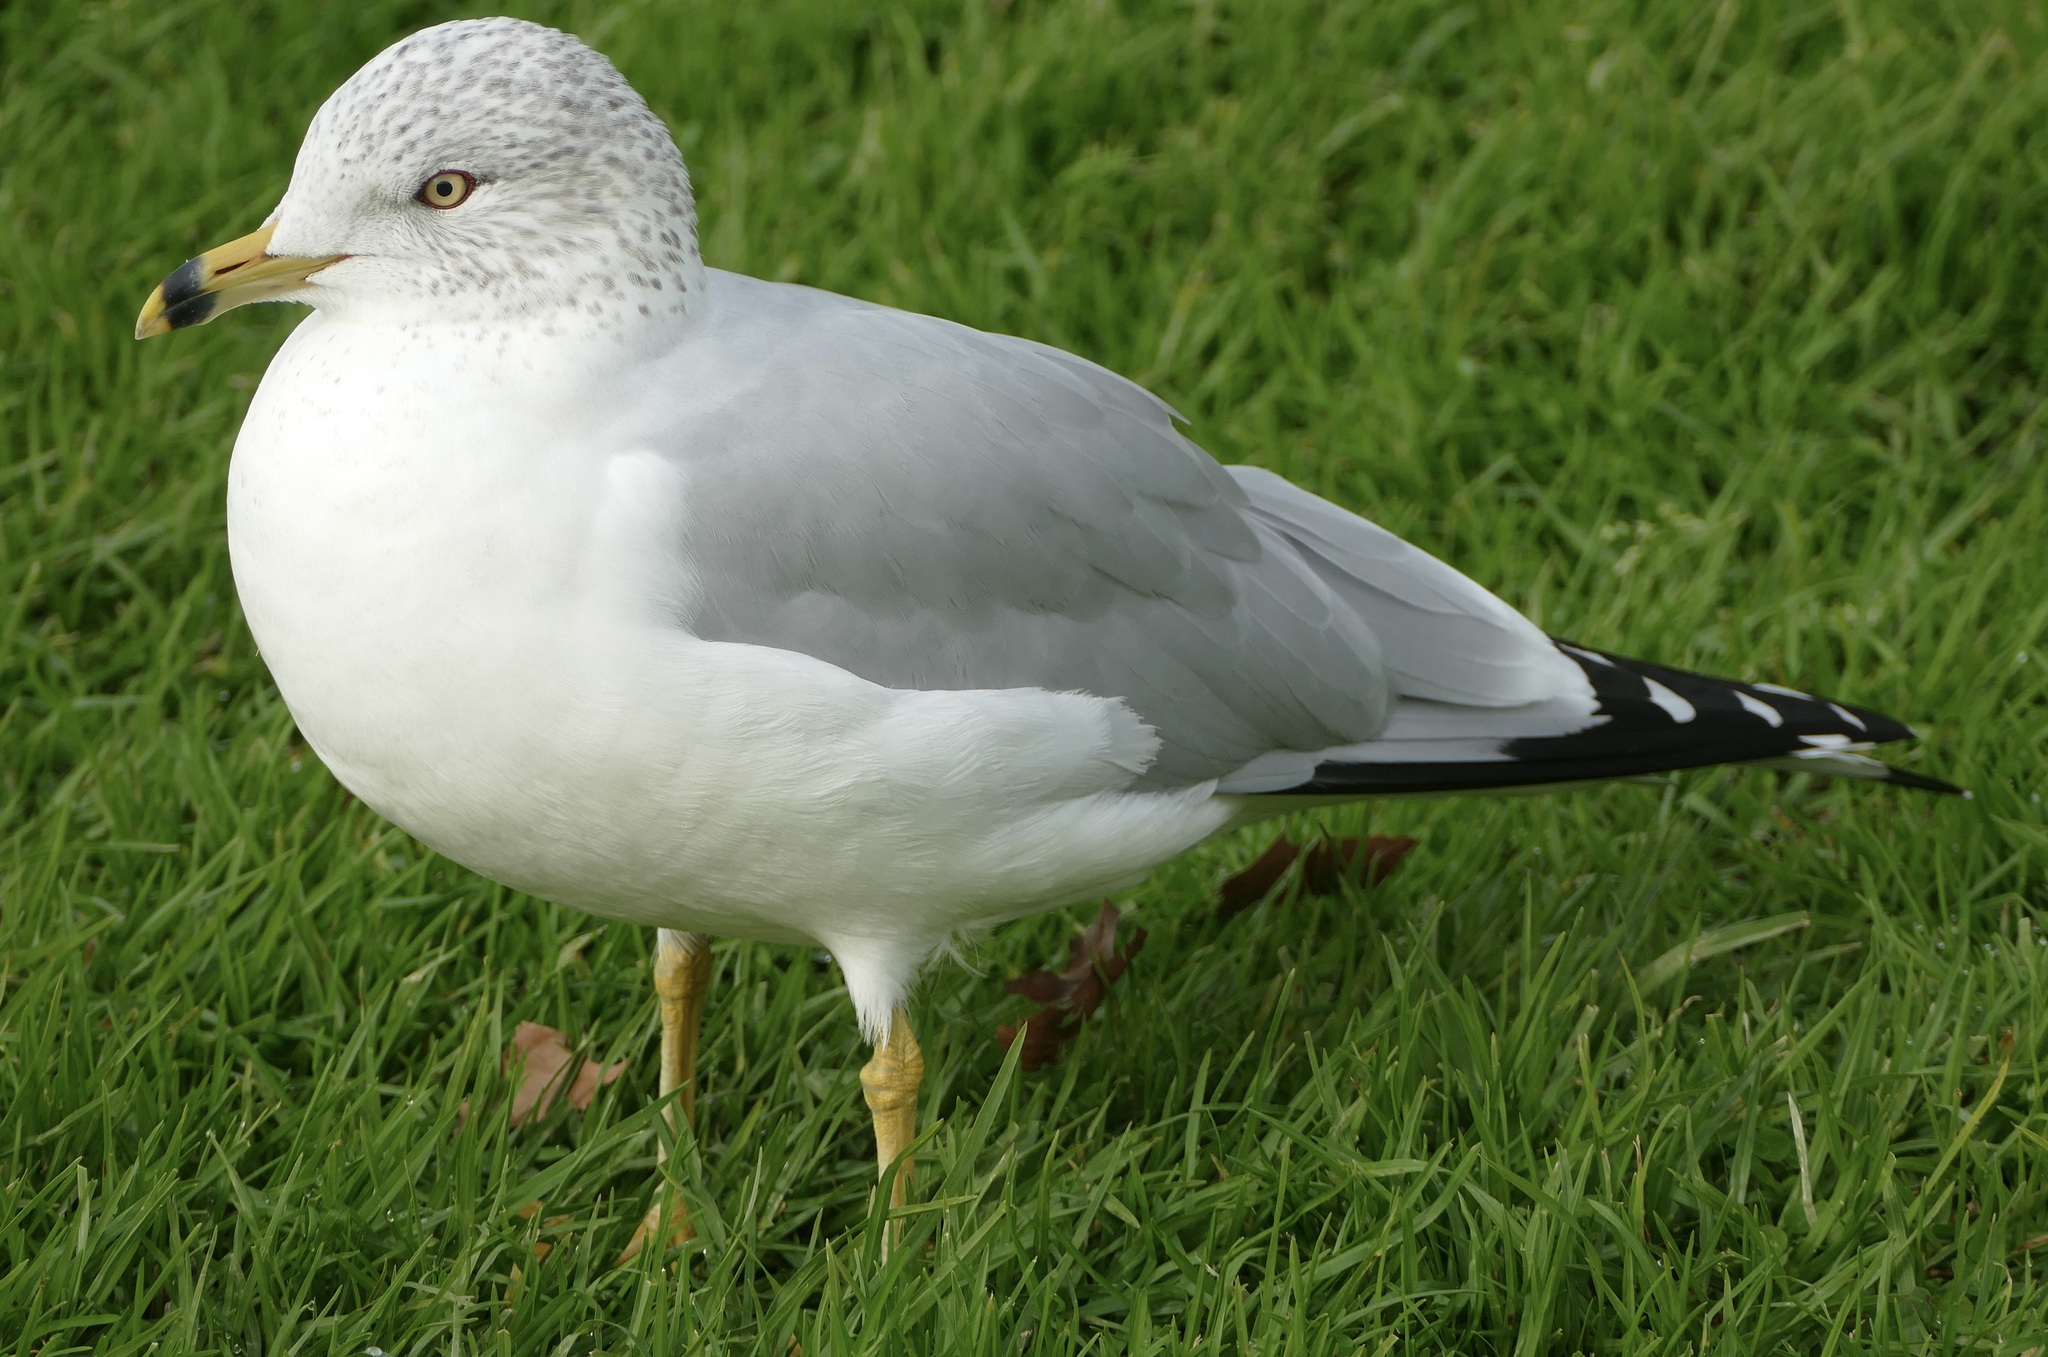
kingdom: Animalia
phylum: Chordata
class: Aves
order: Charadriiformes
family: Laridae
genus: Larus
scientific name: Larus delawarensis
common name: Ring-billed gull
